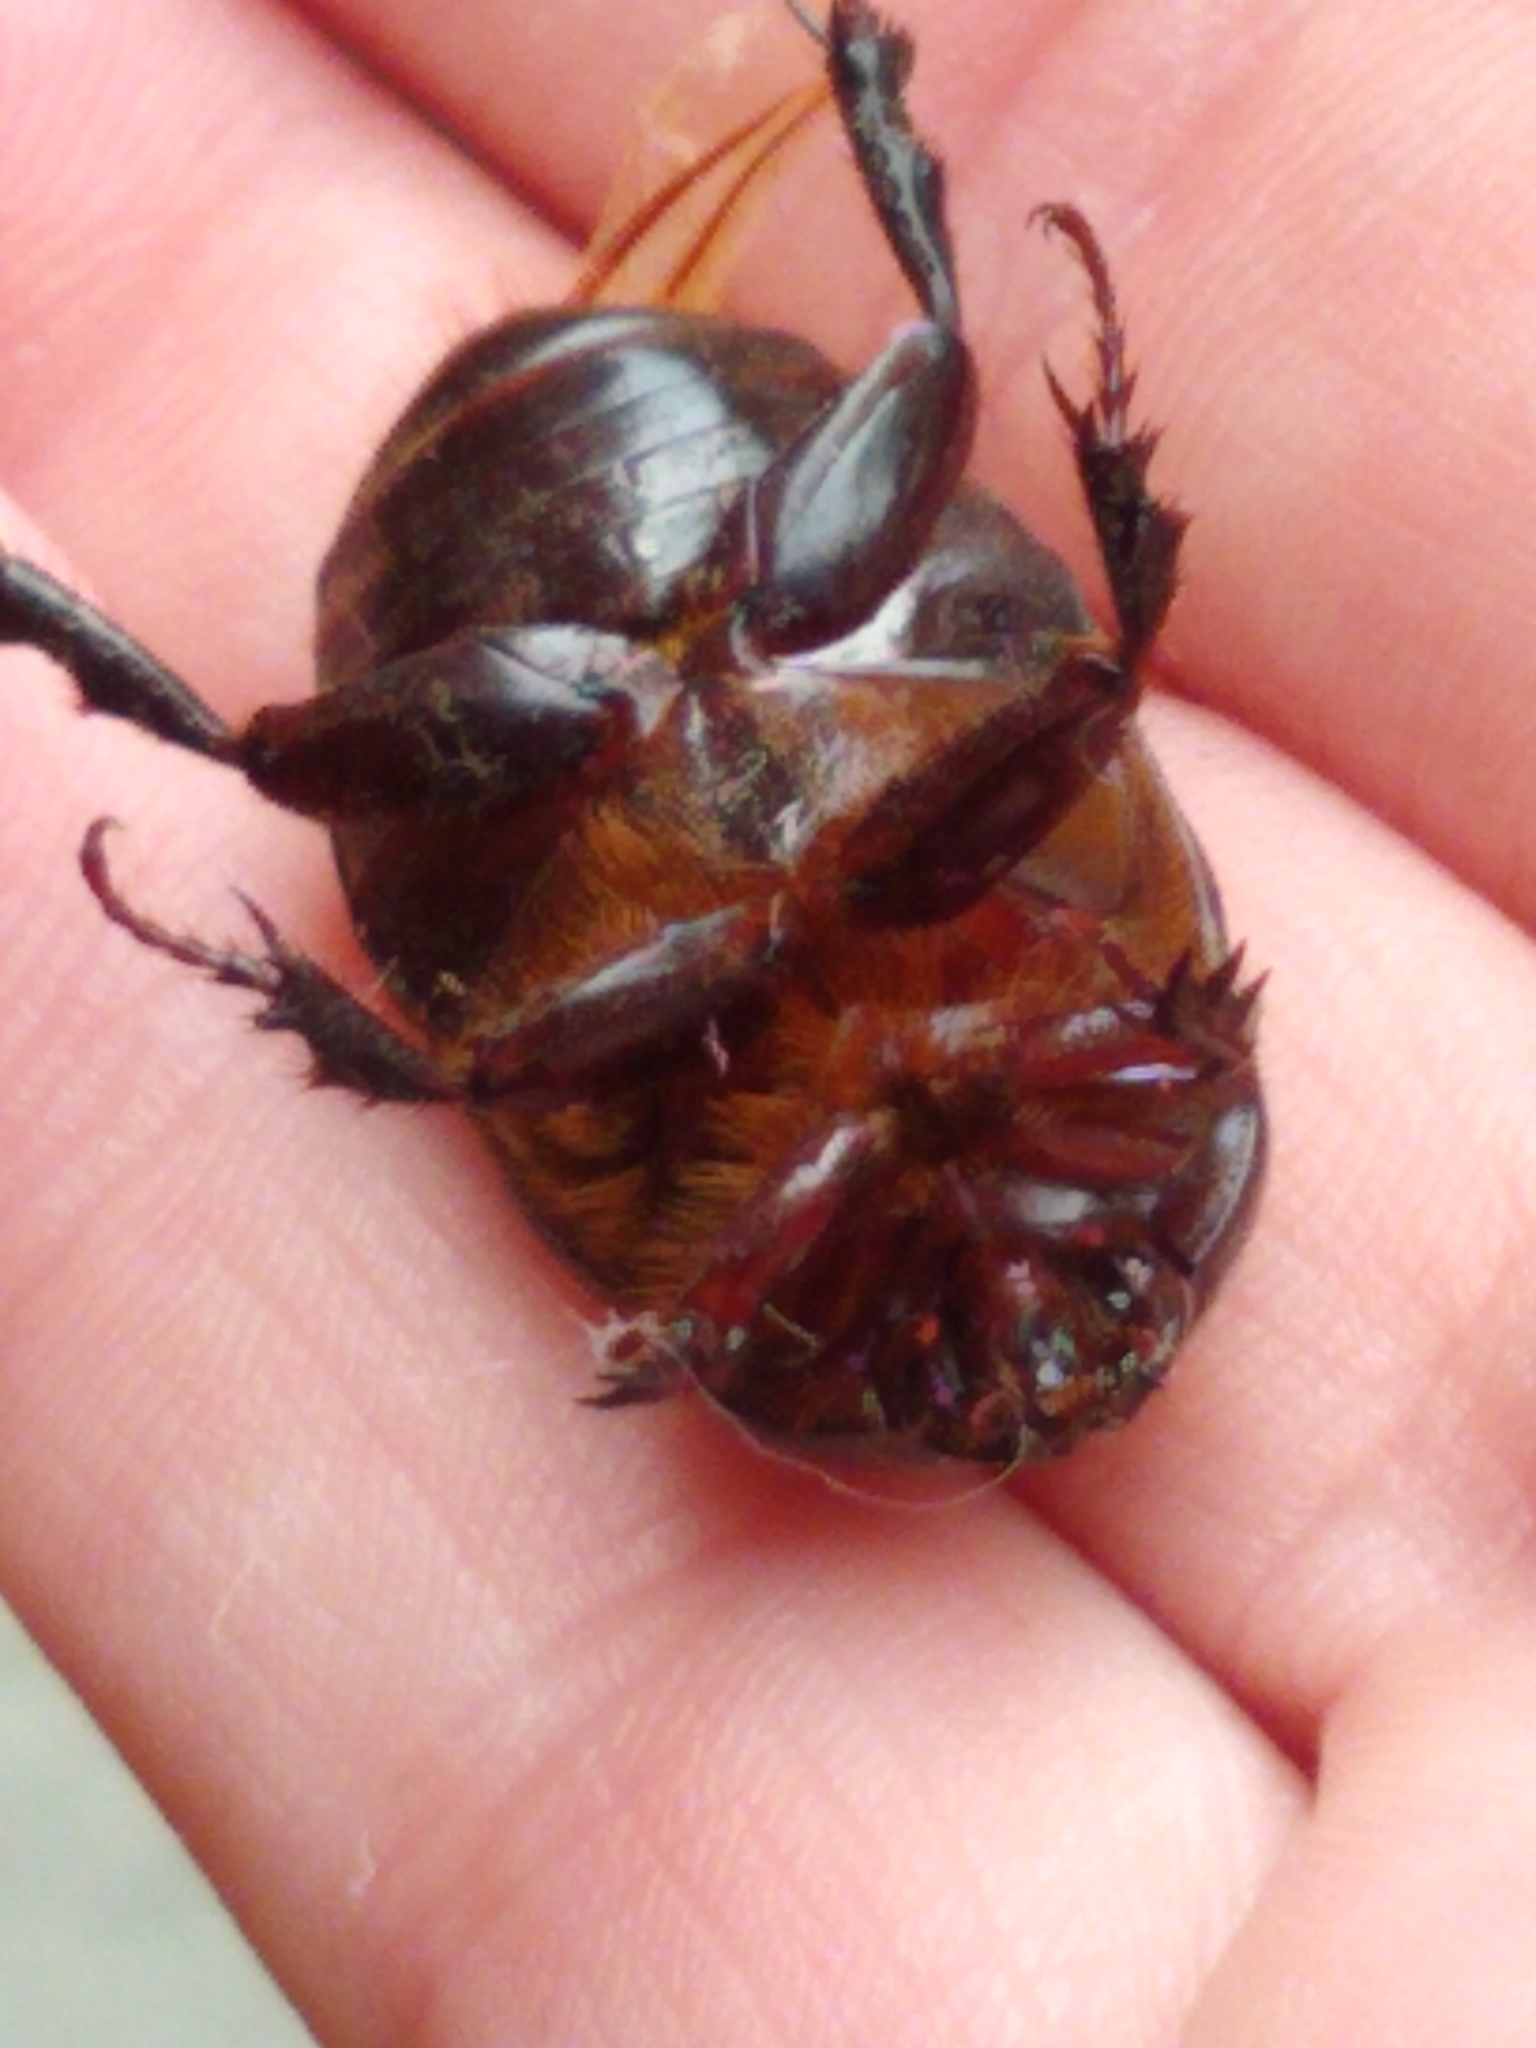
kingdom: Animalia
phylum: Arthropoda
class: Insecta
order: Coleoptera
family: Scarabaeidae
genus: Ligyrus
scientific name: Ligyrus relictus
